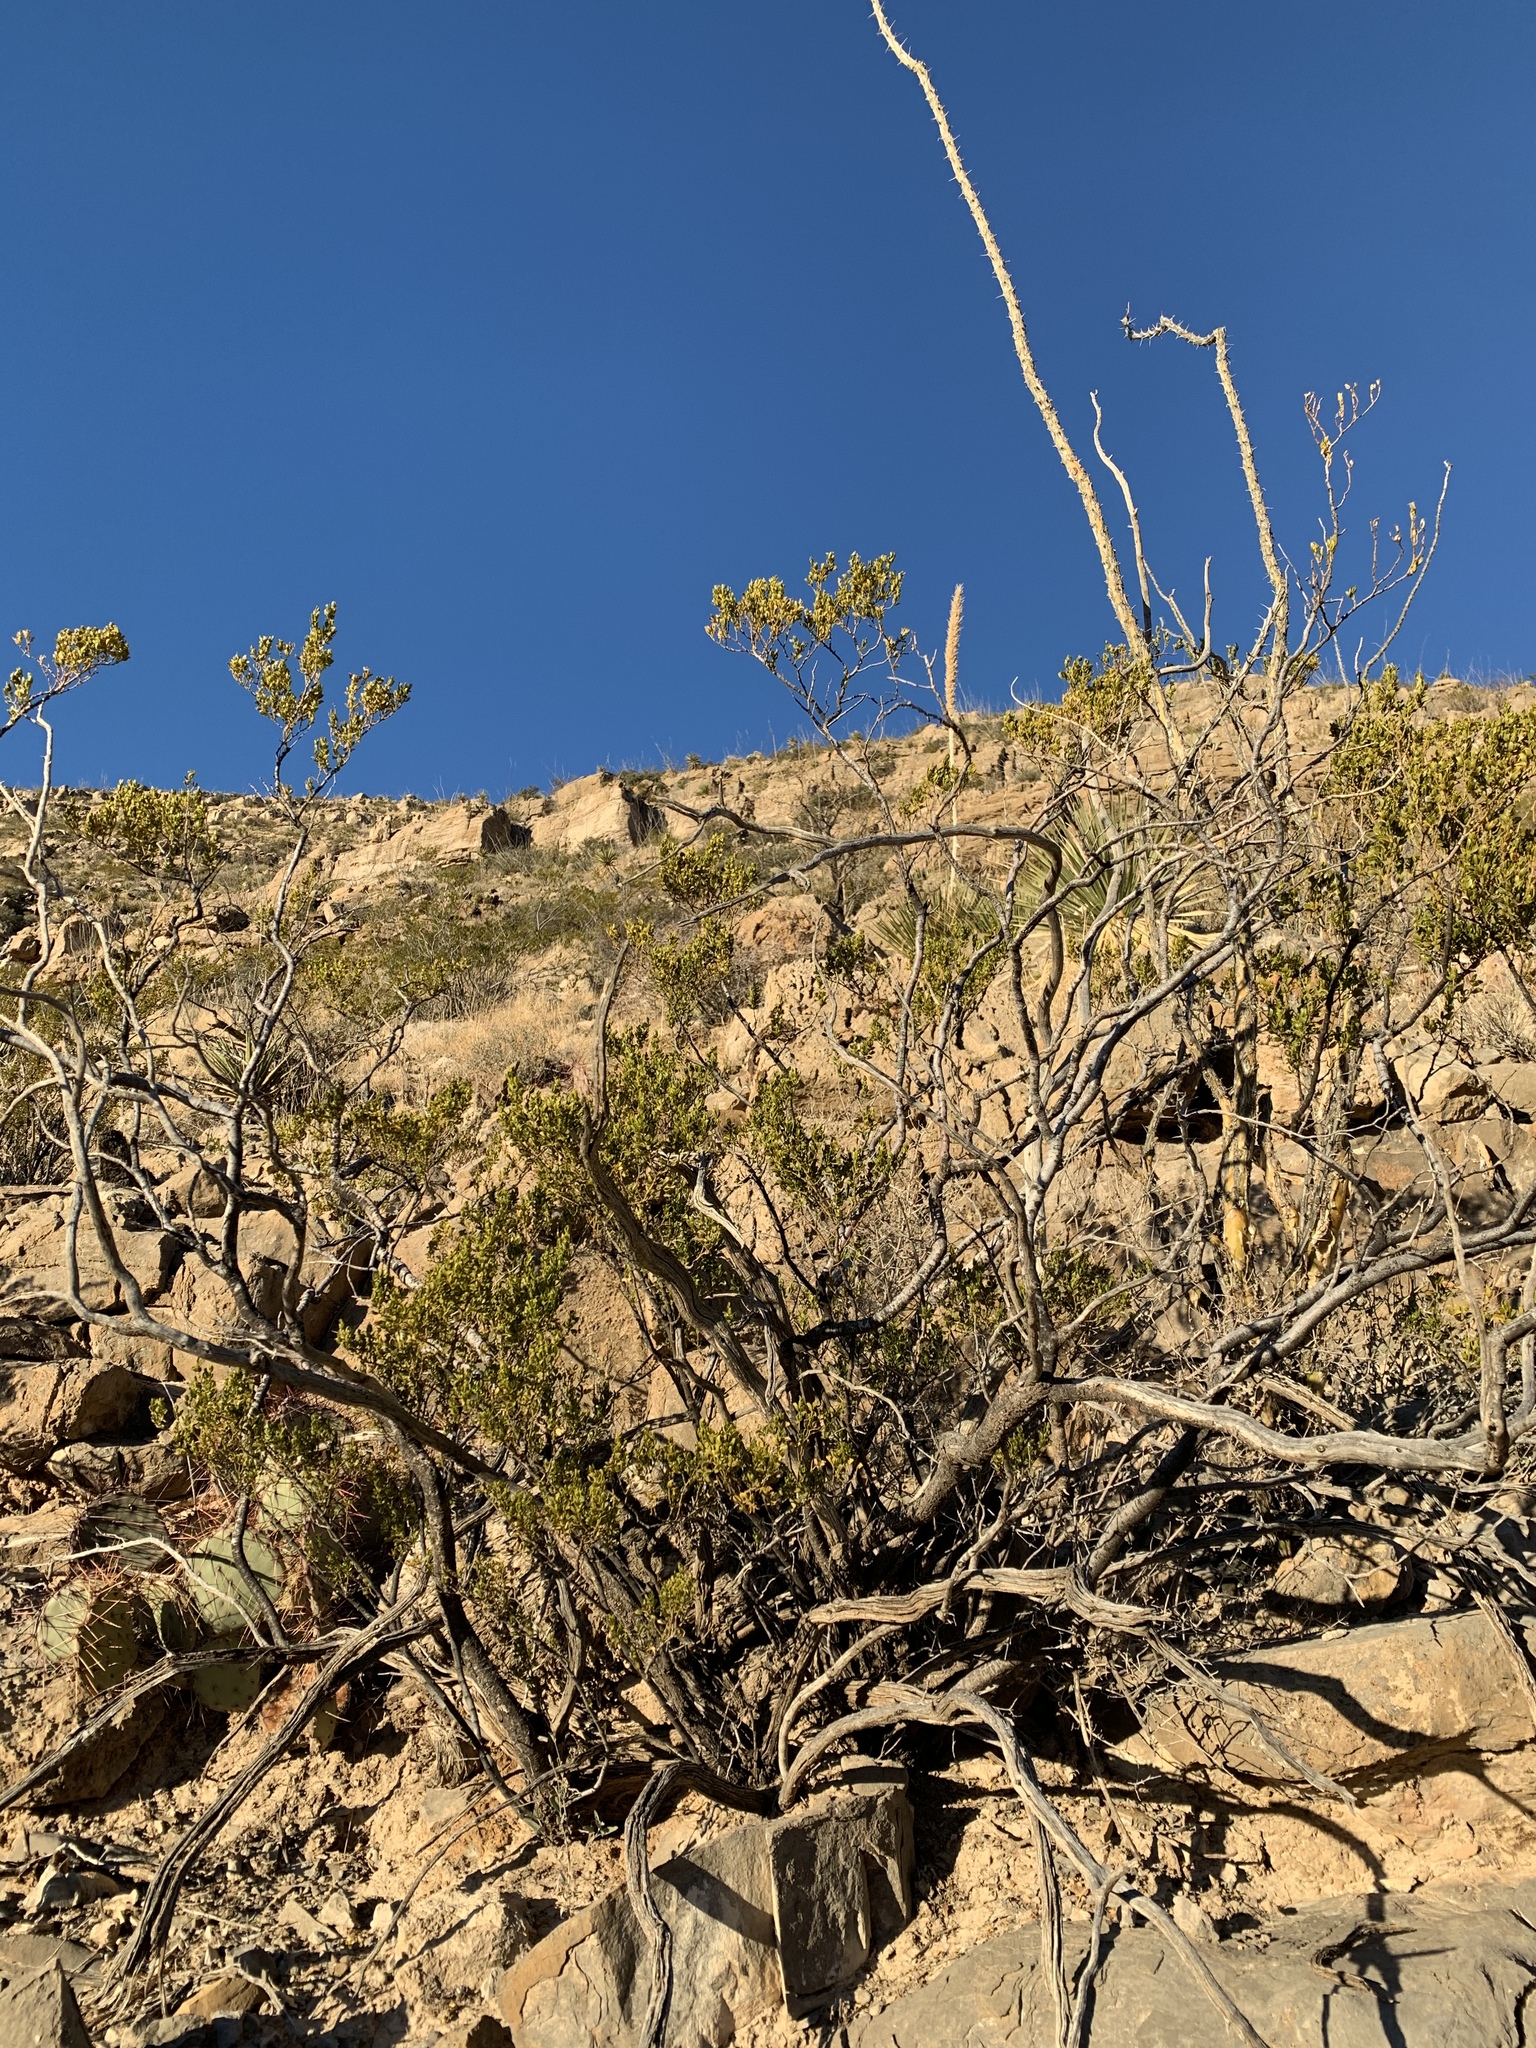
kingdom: Plantae
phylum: Tracheophyta
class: Magnoliopsida
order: Zygophyllales
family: Zygophyllaceae
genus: Larrea
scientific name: Larrea tridentata
